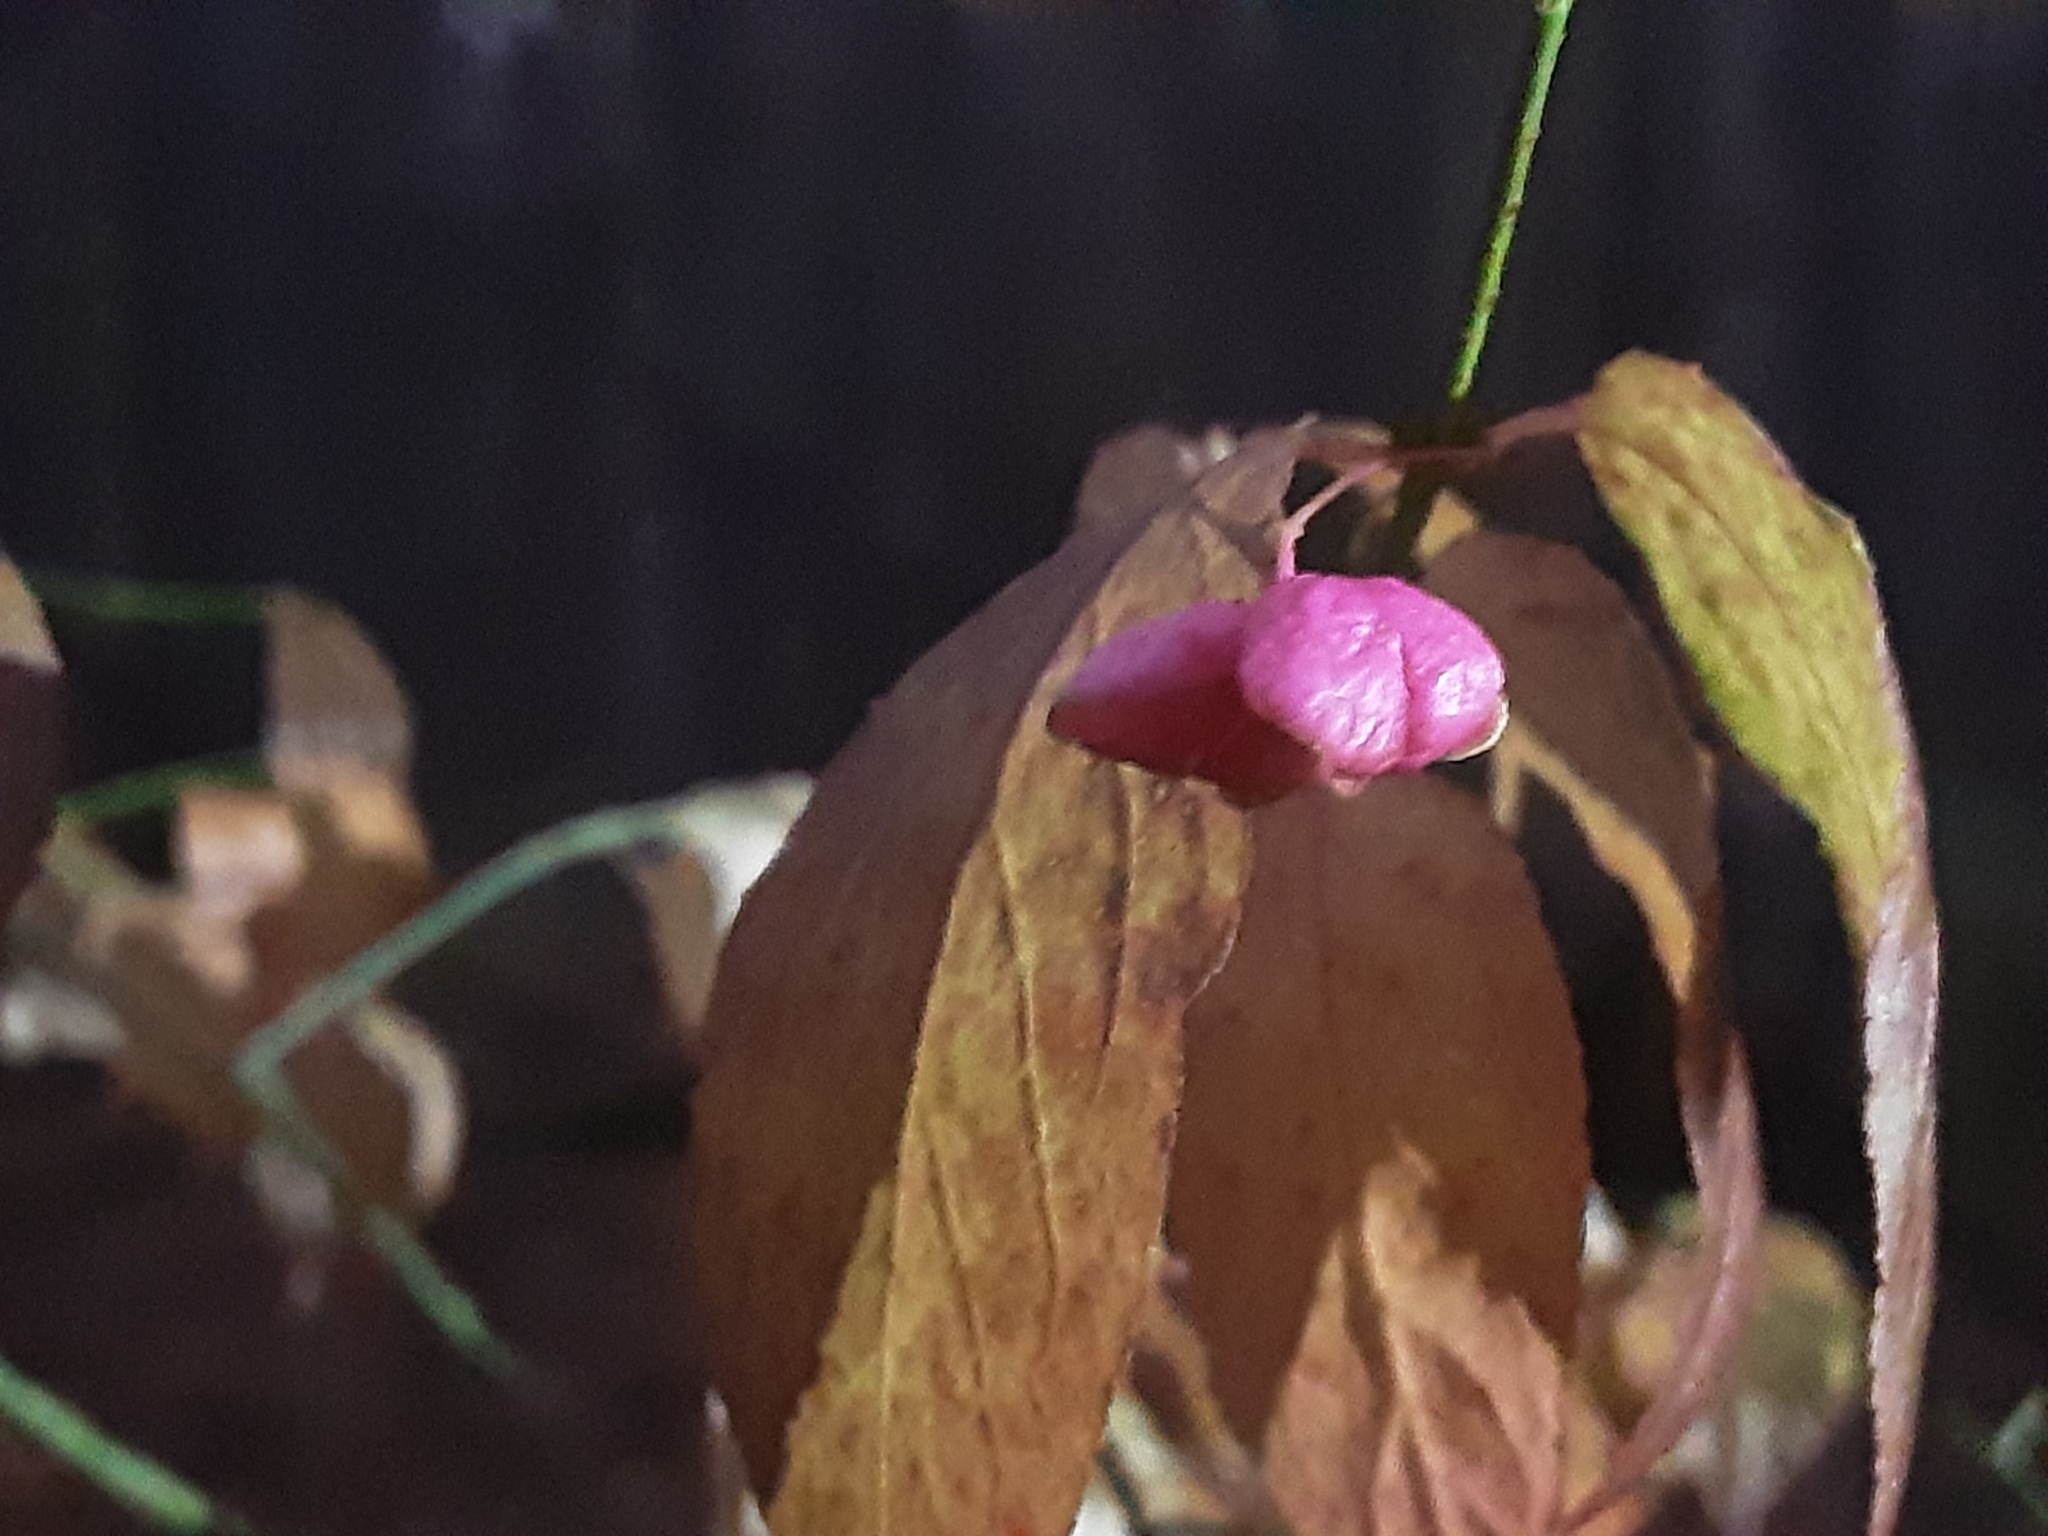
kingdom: Plantae
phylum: Tracheophyta
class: Magnoliopsida
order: Celastrales
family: Celastraceae
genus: Euonymus
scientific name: Euonymus verrucosus
